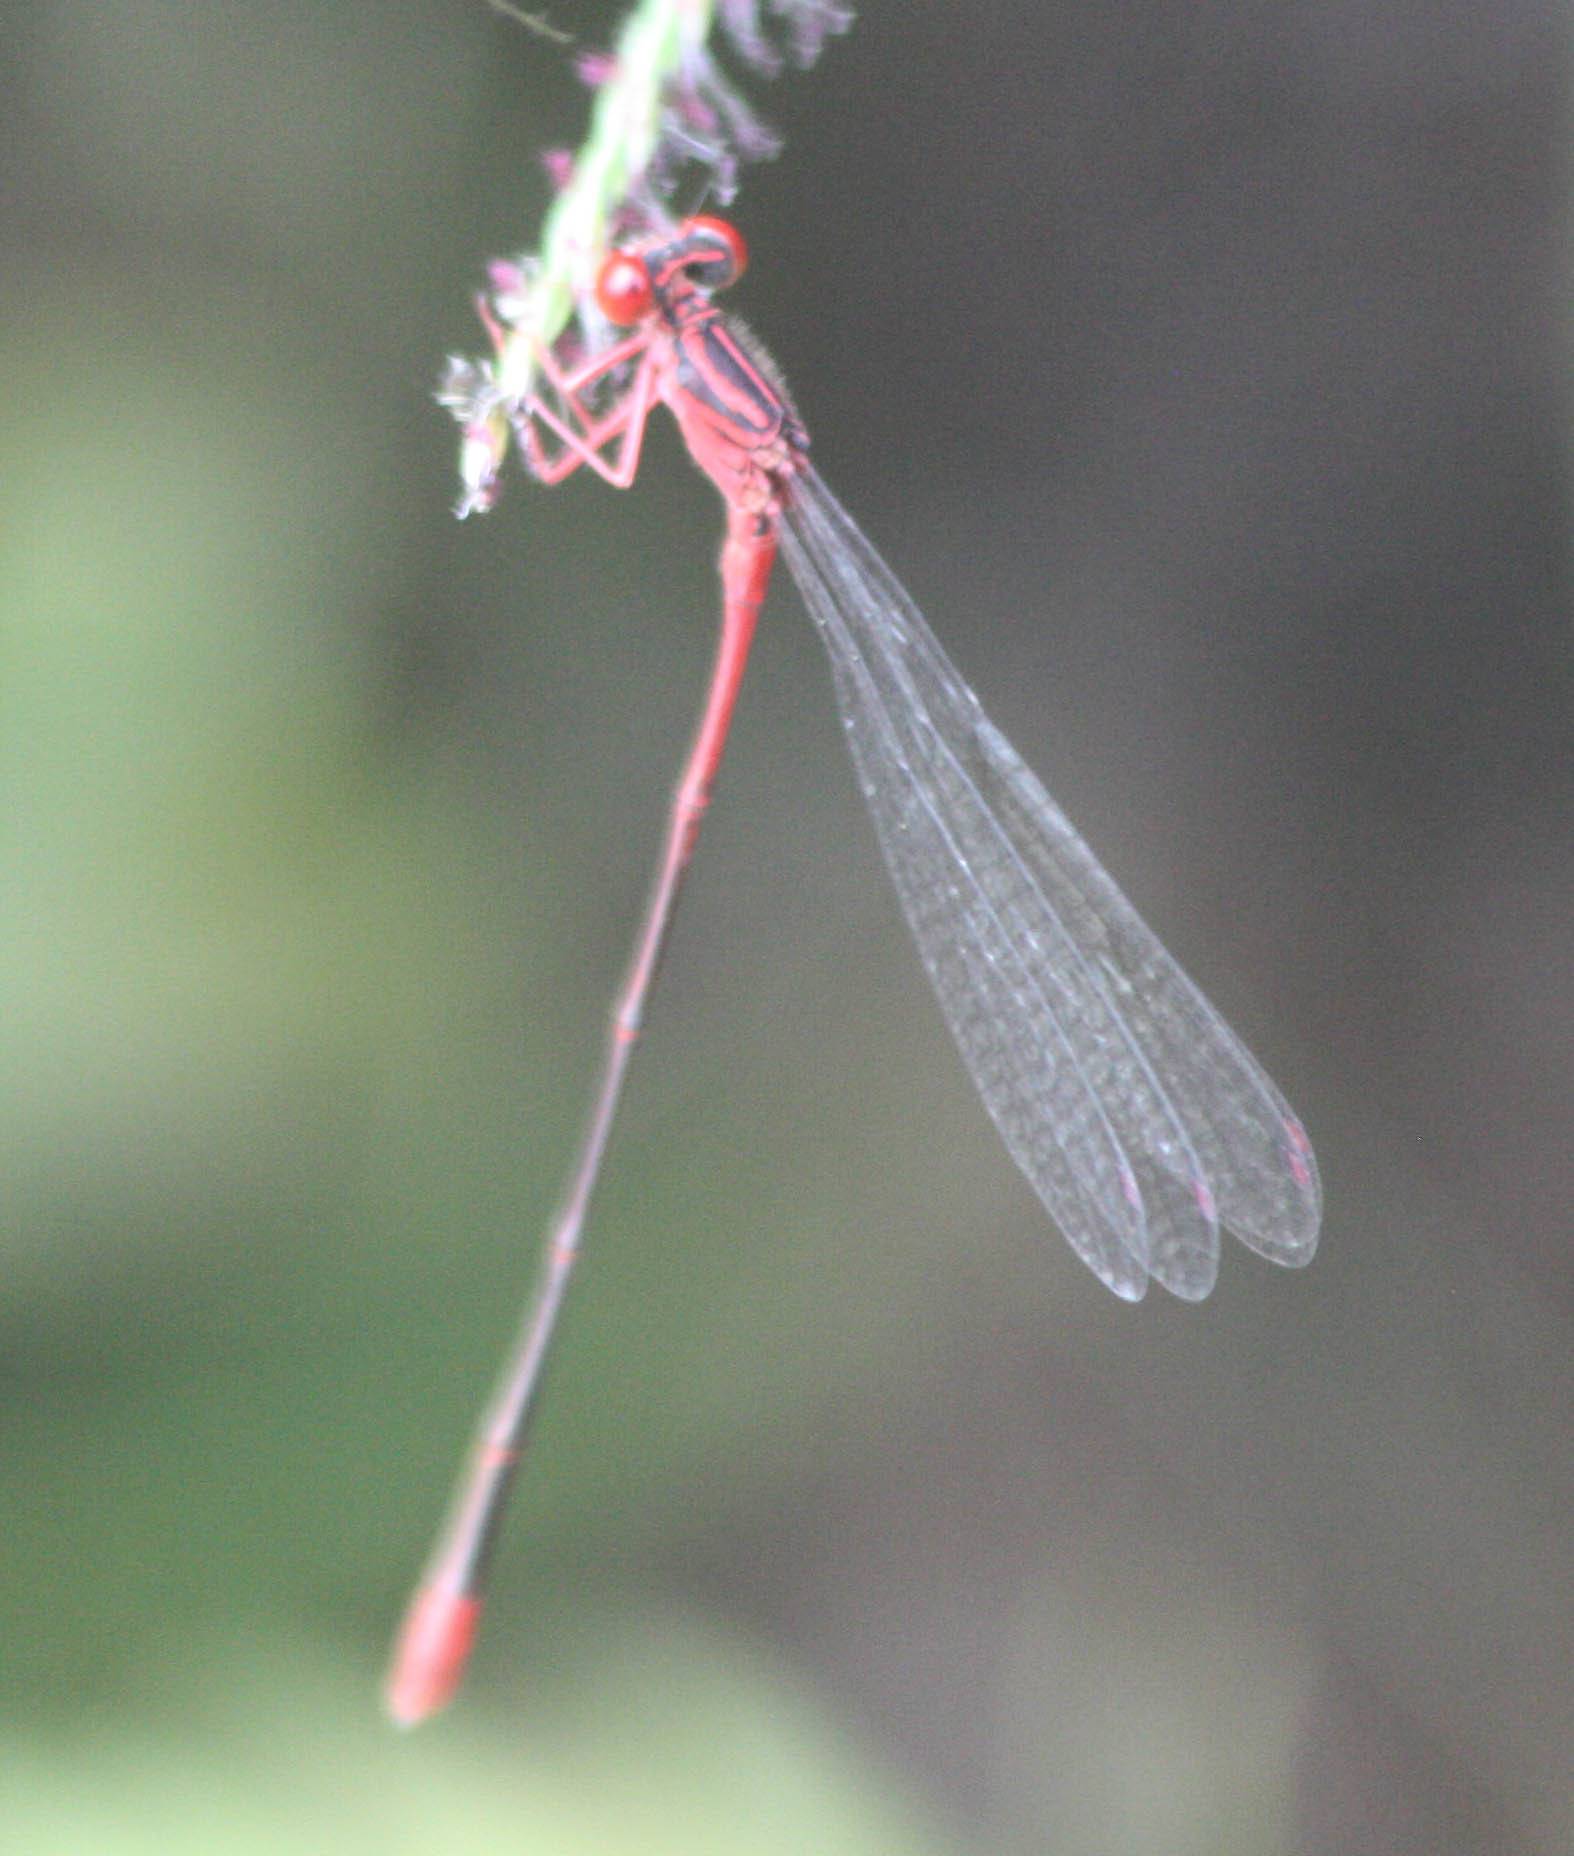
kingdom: Animalia
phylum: Arthropoda
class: Insecta
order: Odonata
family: Coenagrionidae
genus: Megalagrion
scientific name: Megalagrion oresitrophum
